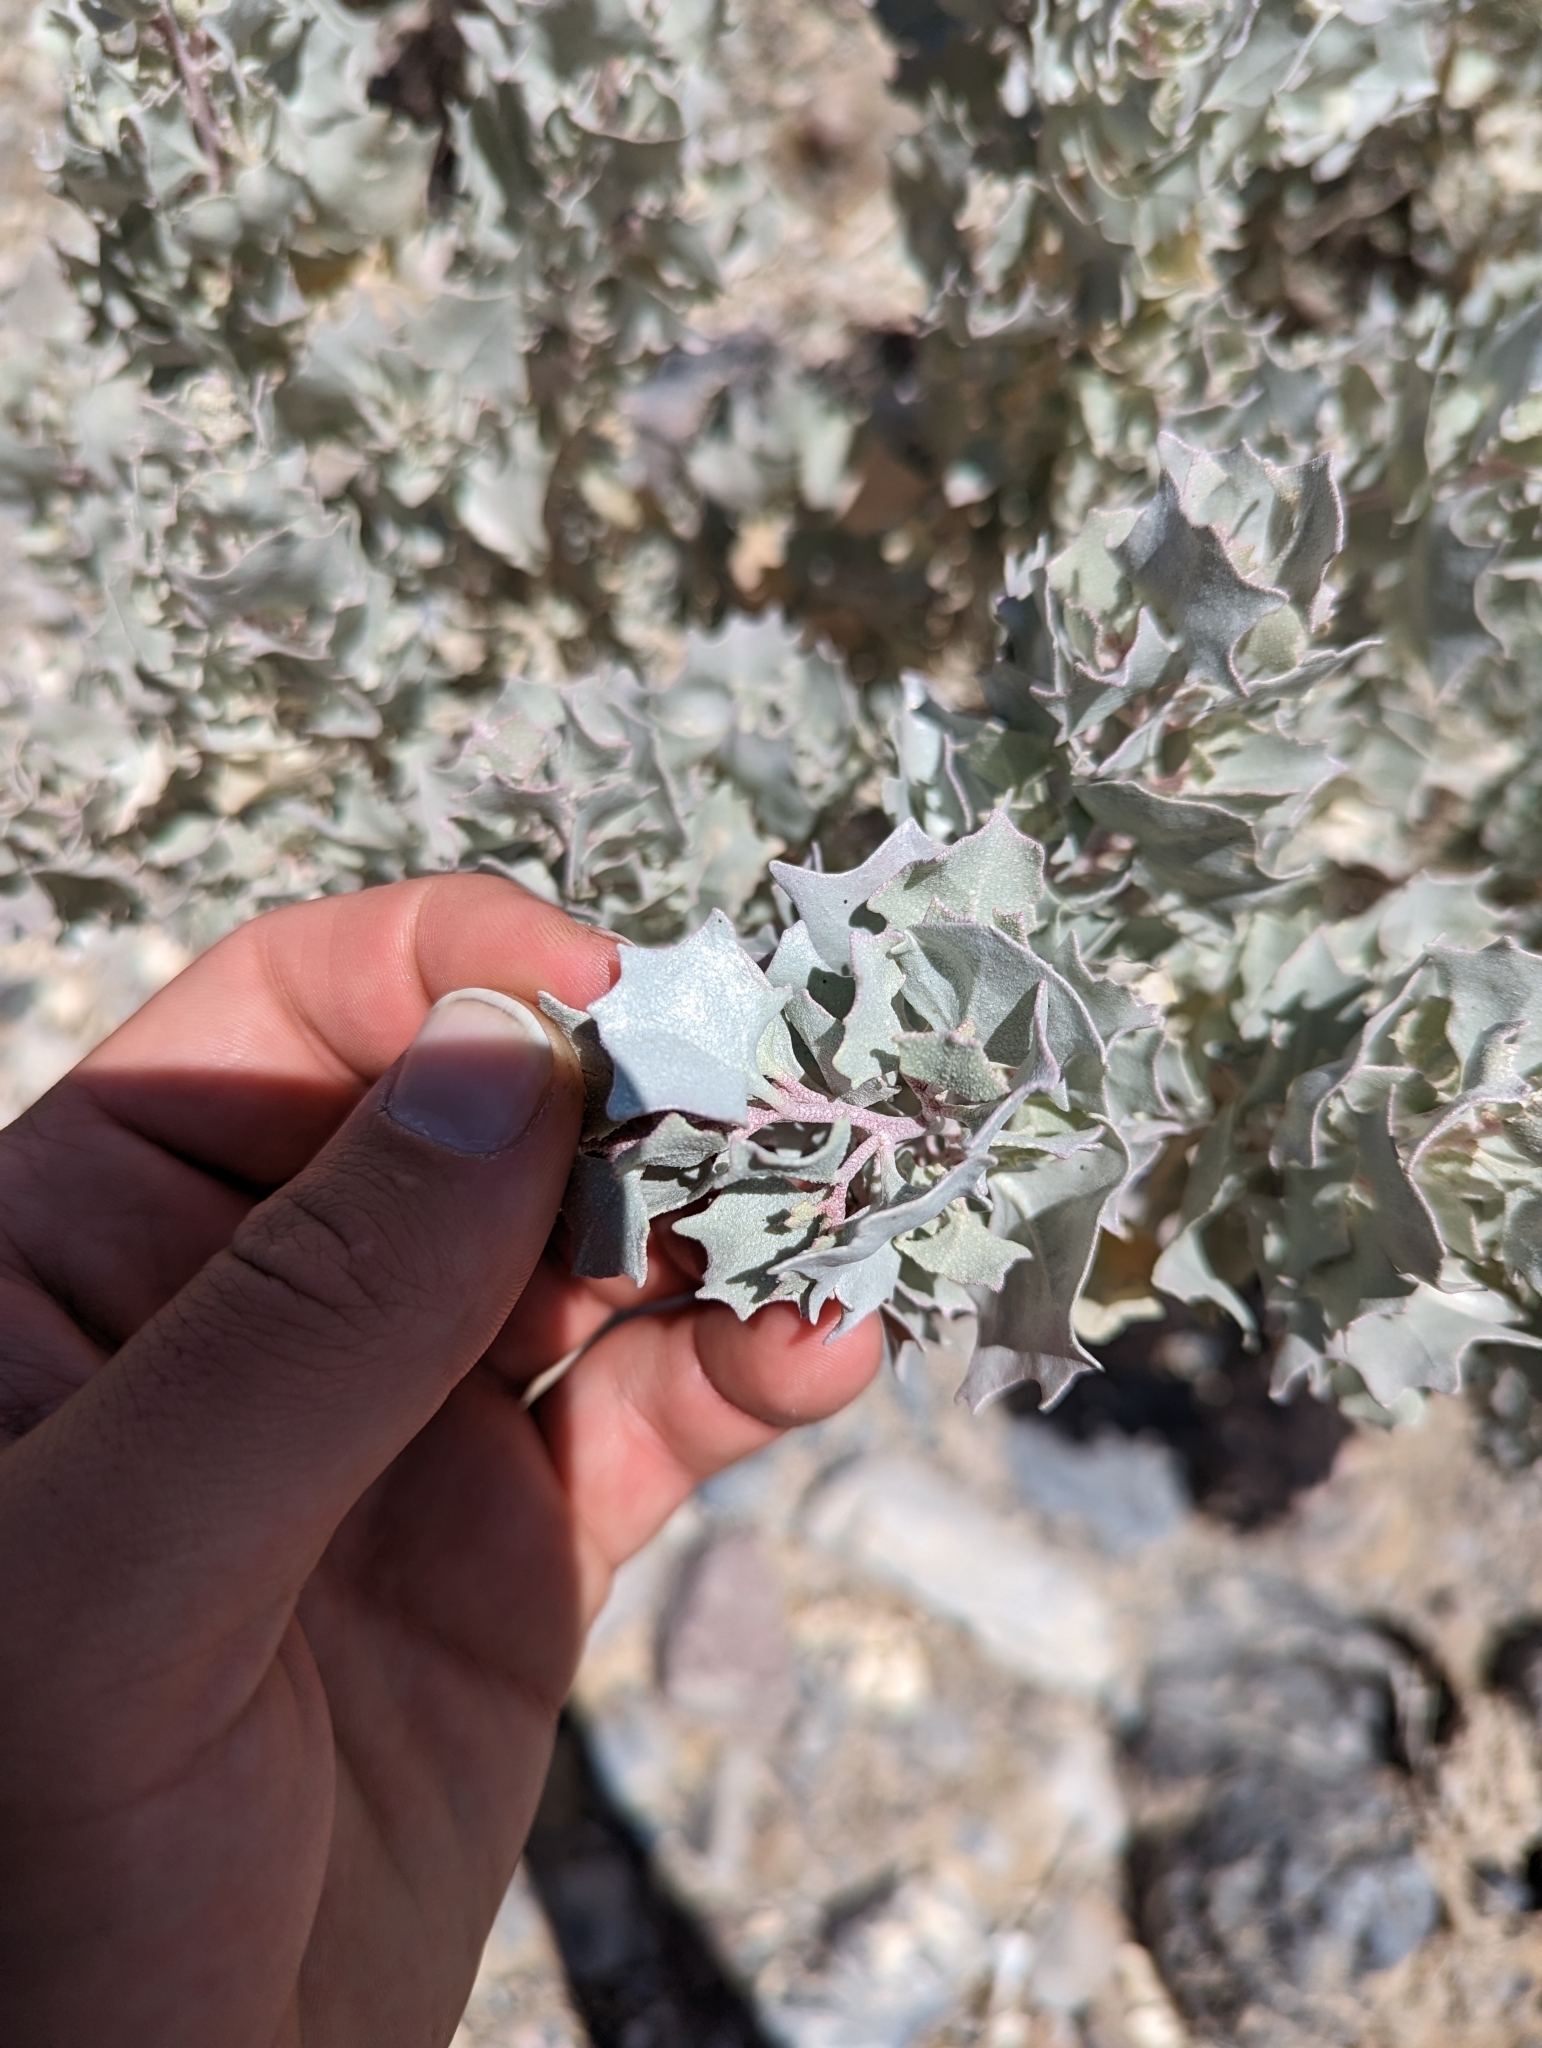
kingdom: Plantae
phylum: Tracheophyta
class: Magnoliopsida
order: Caryophyllales
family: Amaranthaceae
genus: Atriplex
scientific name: Atriplex hymenelytra
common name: Desert-holly
